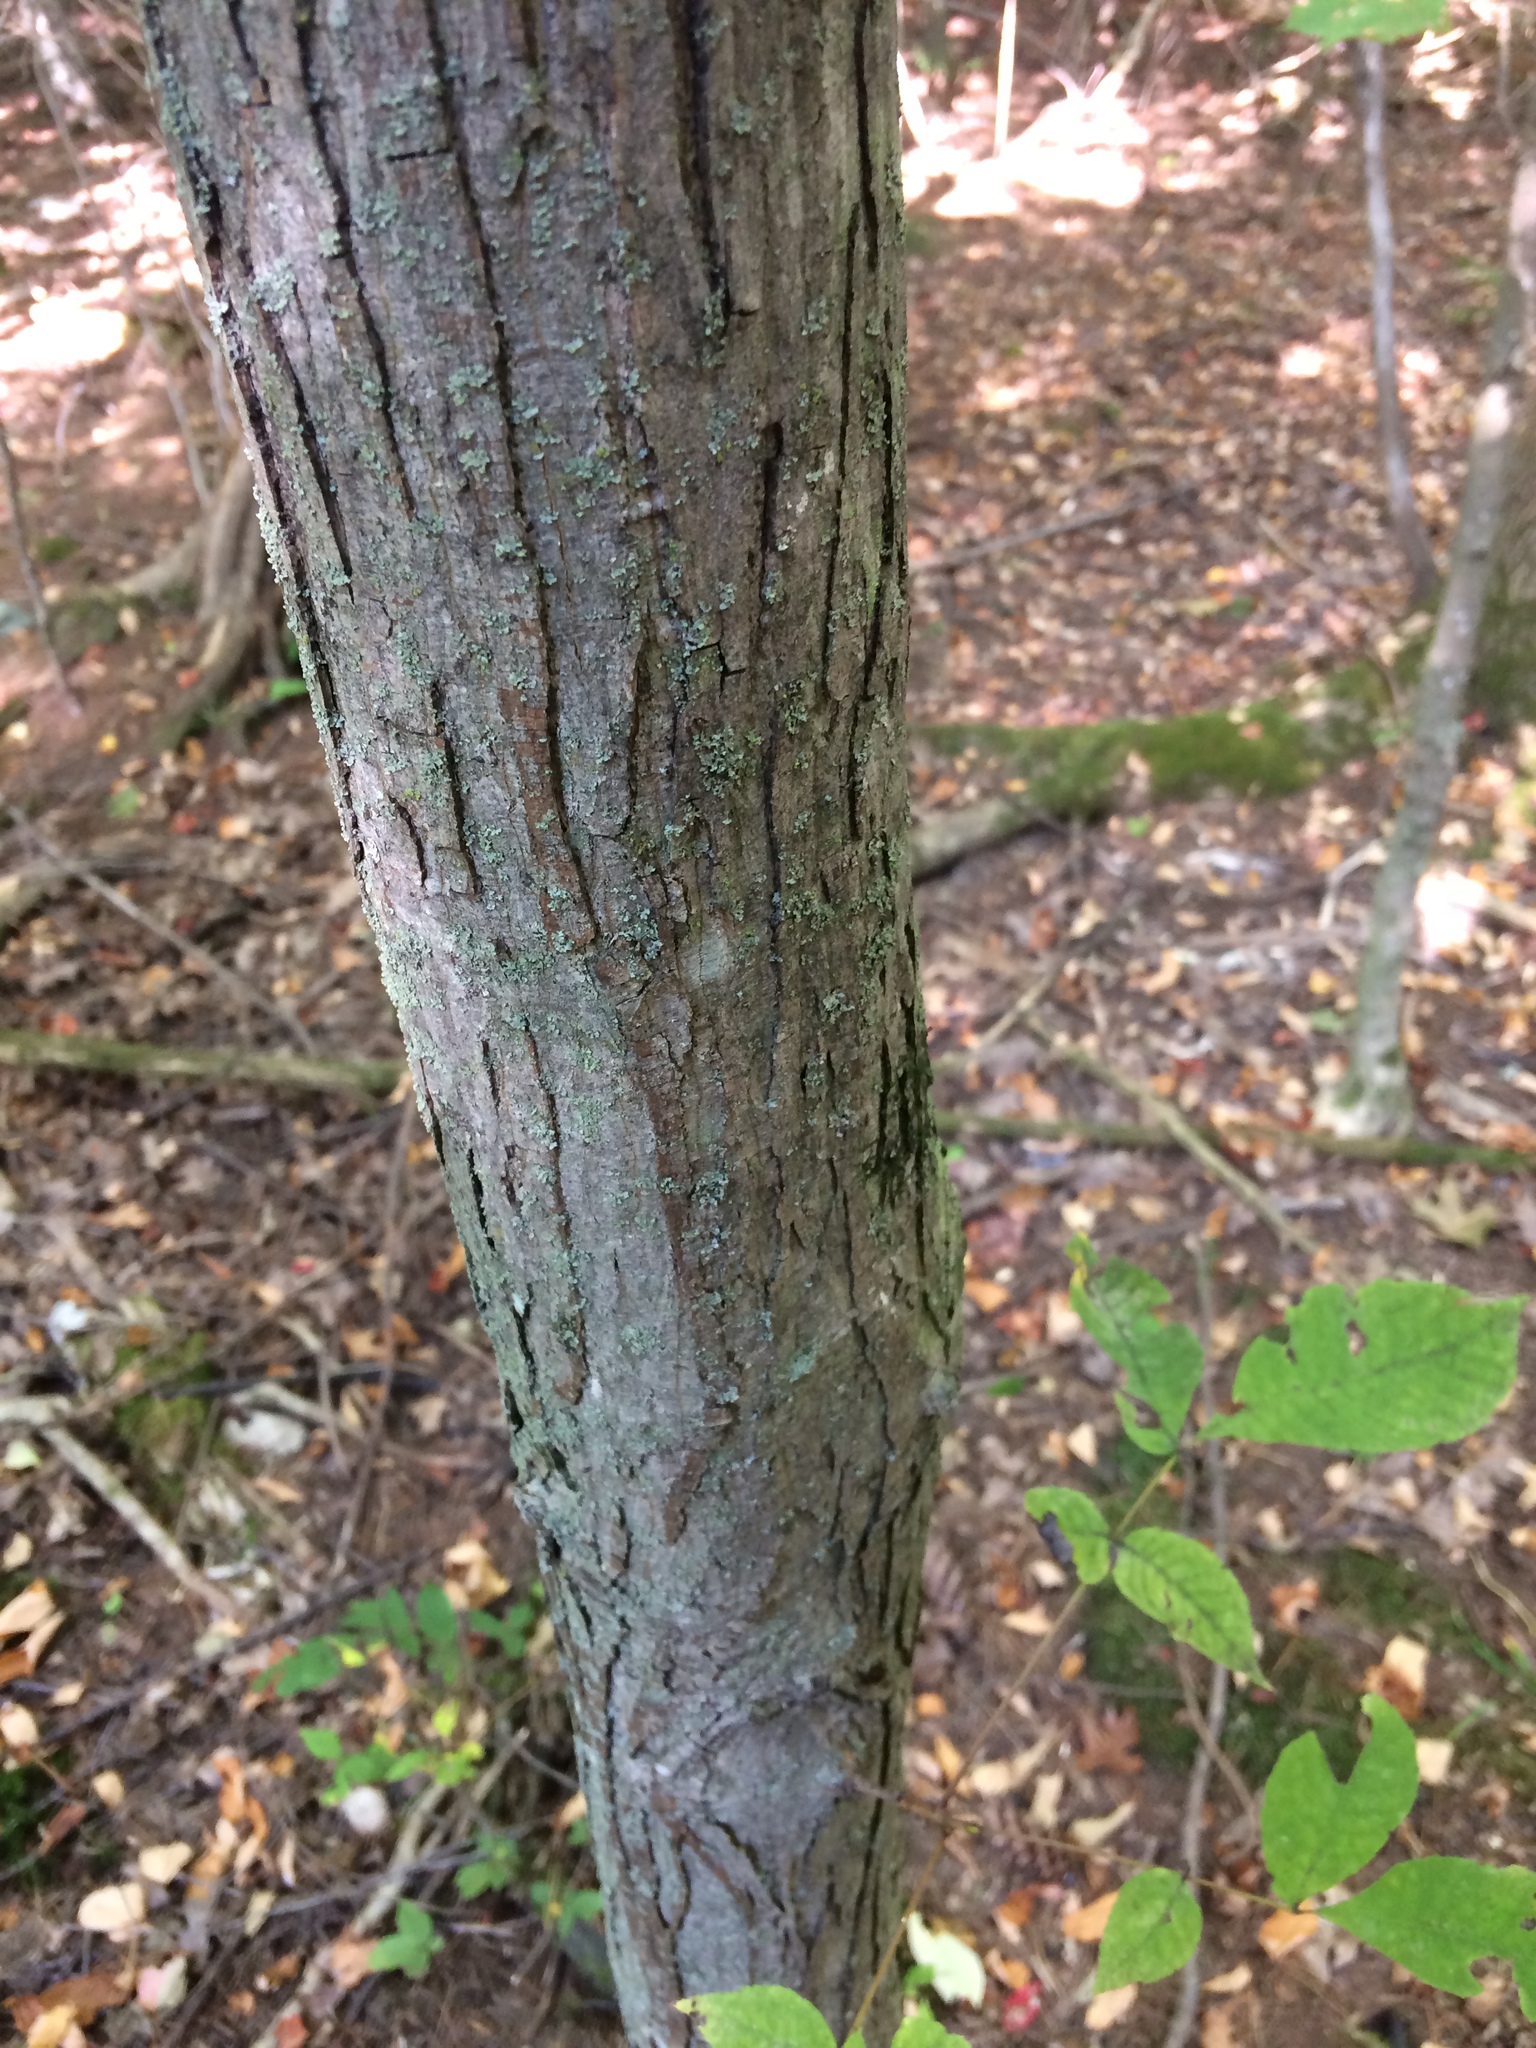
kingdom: Plantae
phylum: Tracheophyta
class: Magnoliopsida
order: Fagales
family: Juglandaceae
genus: Carya
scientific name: Carya ovata
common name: Shagbark hickory
